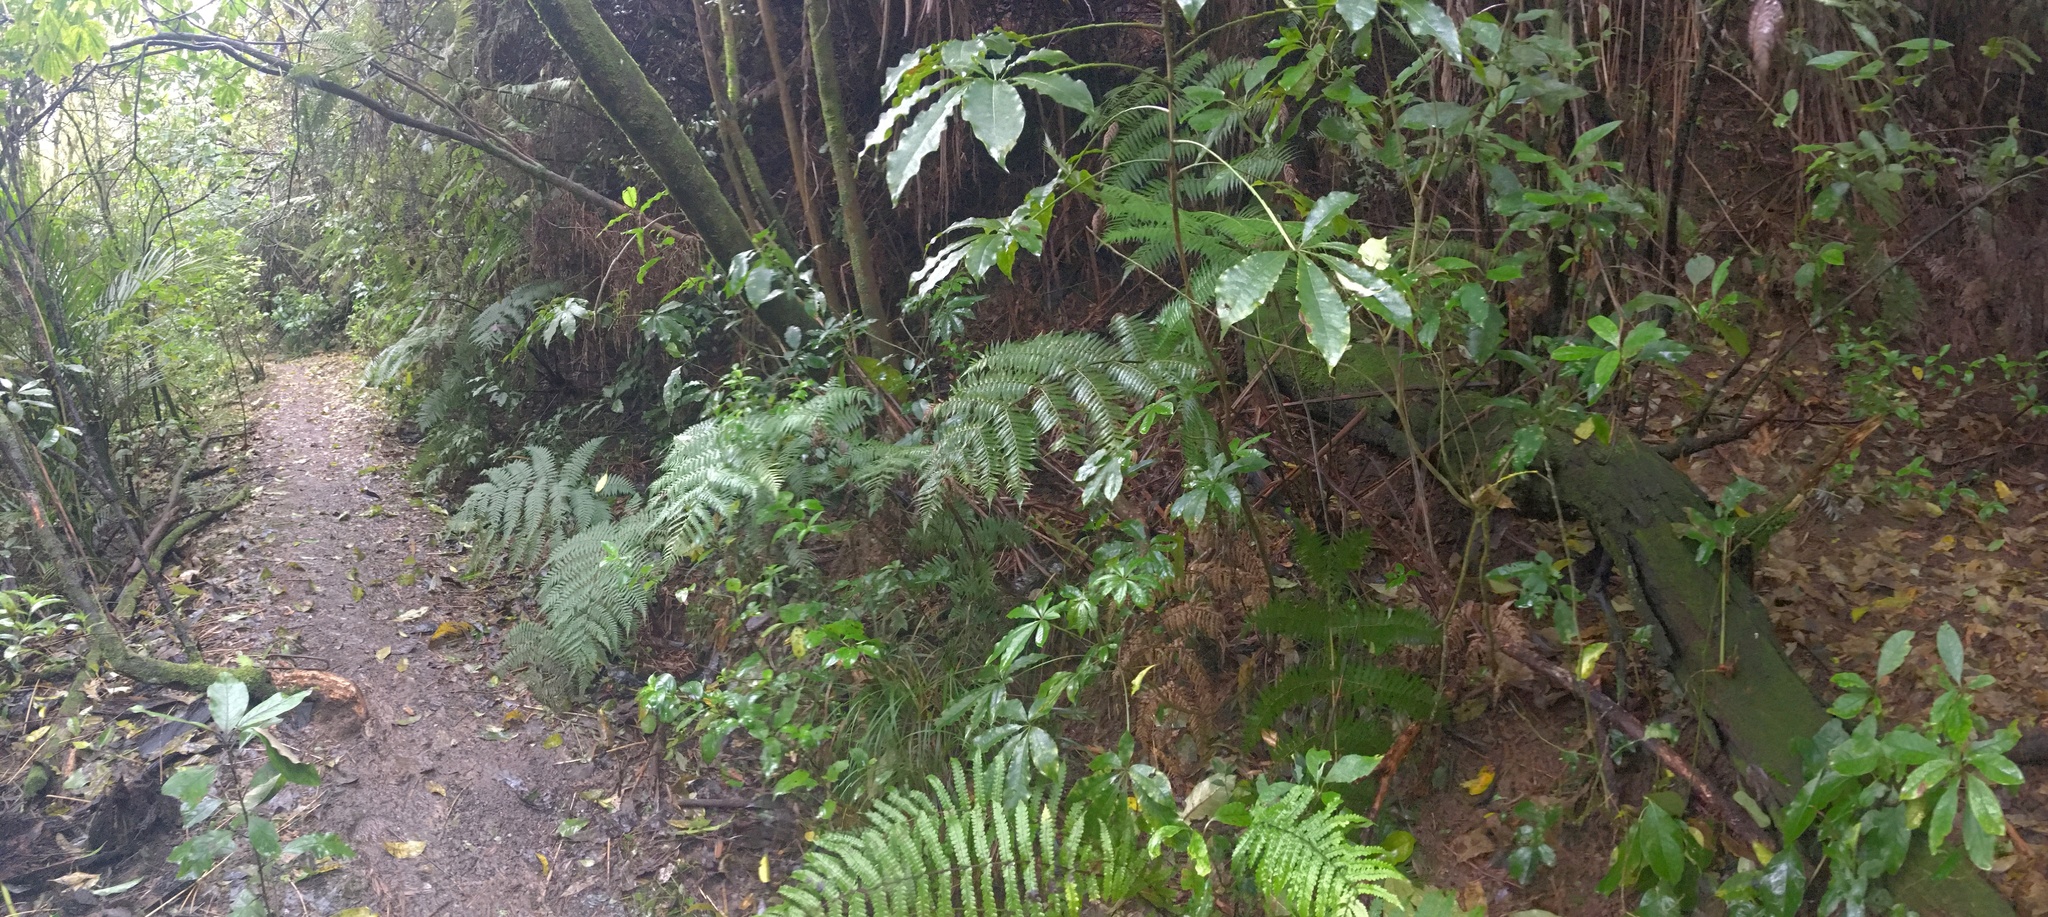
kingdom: Plantae
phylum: Tracheophyta
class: Magnoliopsida
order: Apiales
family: Araliaceae
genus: Schefflera
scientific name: Schefflera digitata
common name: Pate
